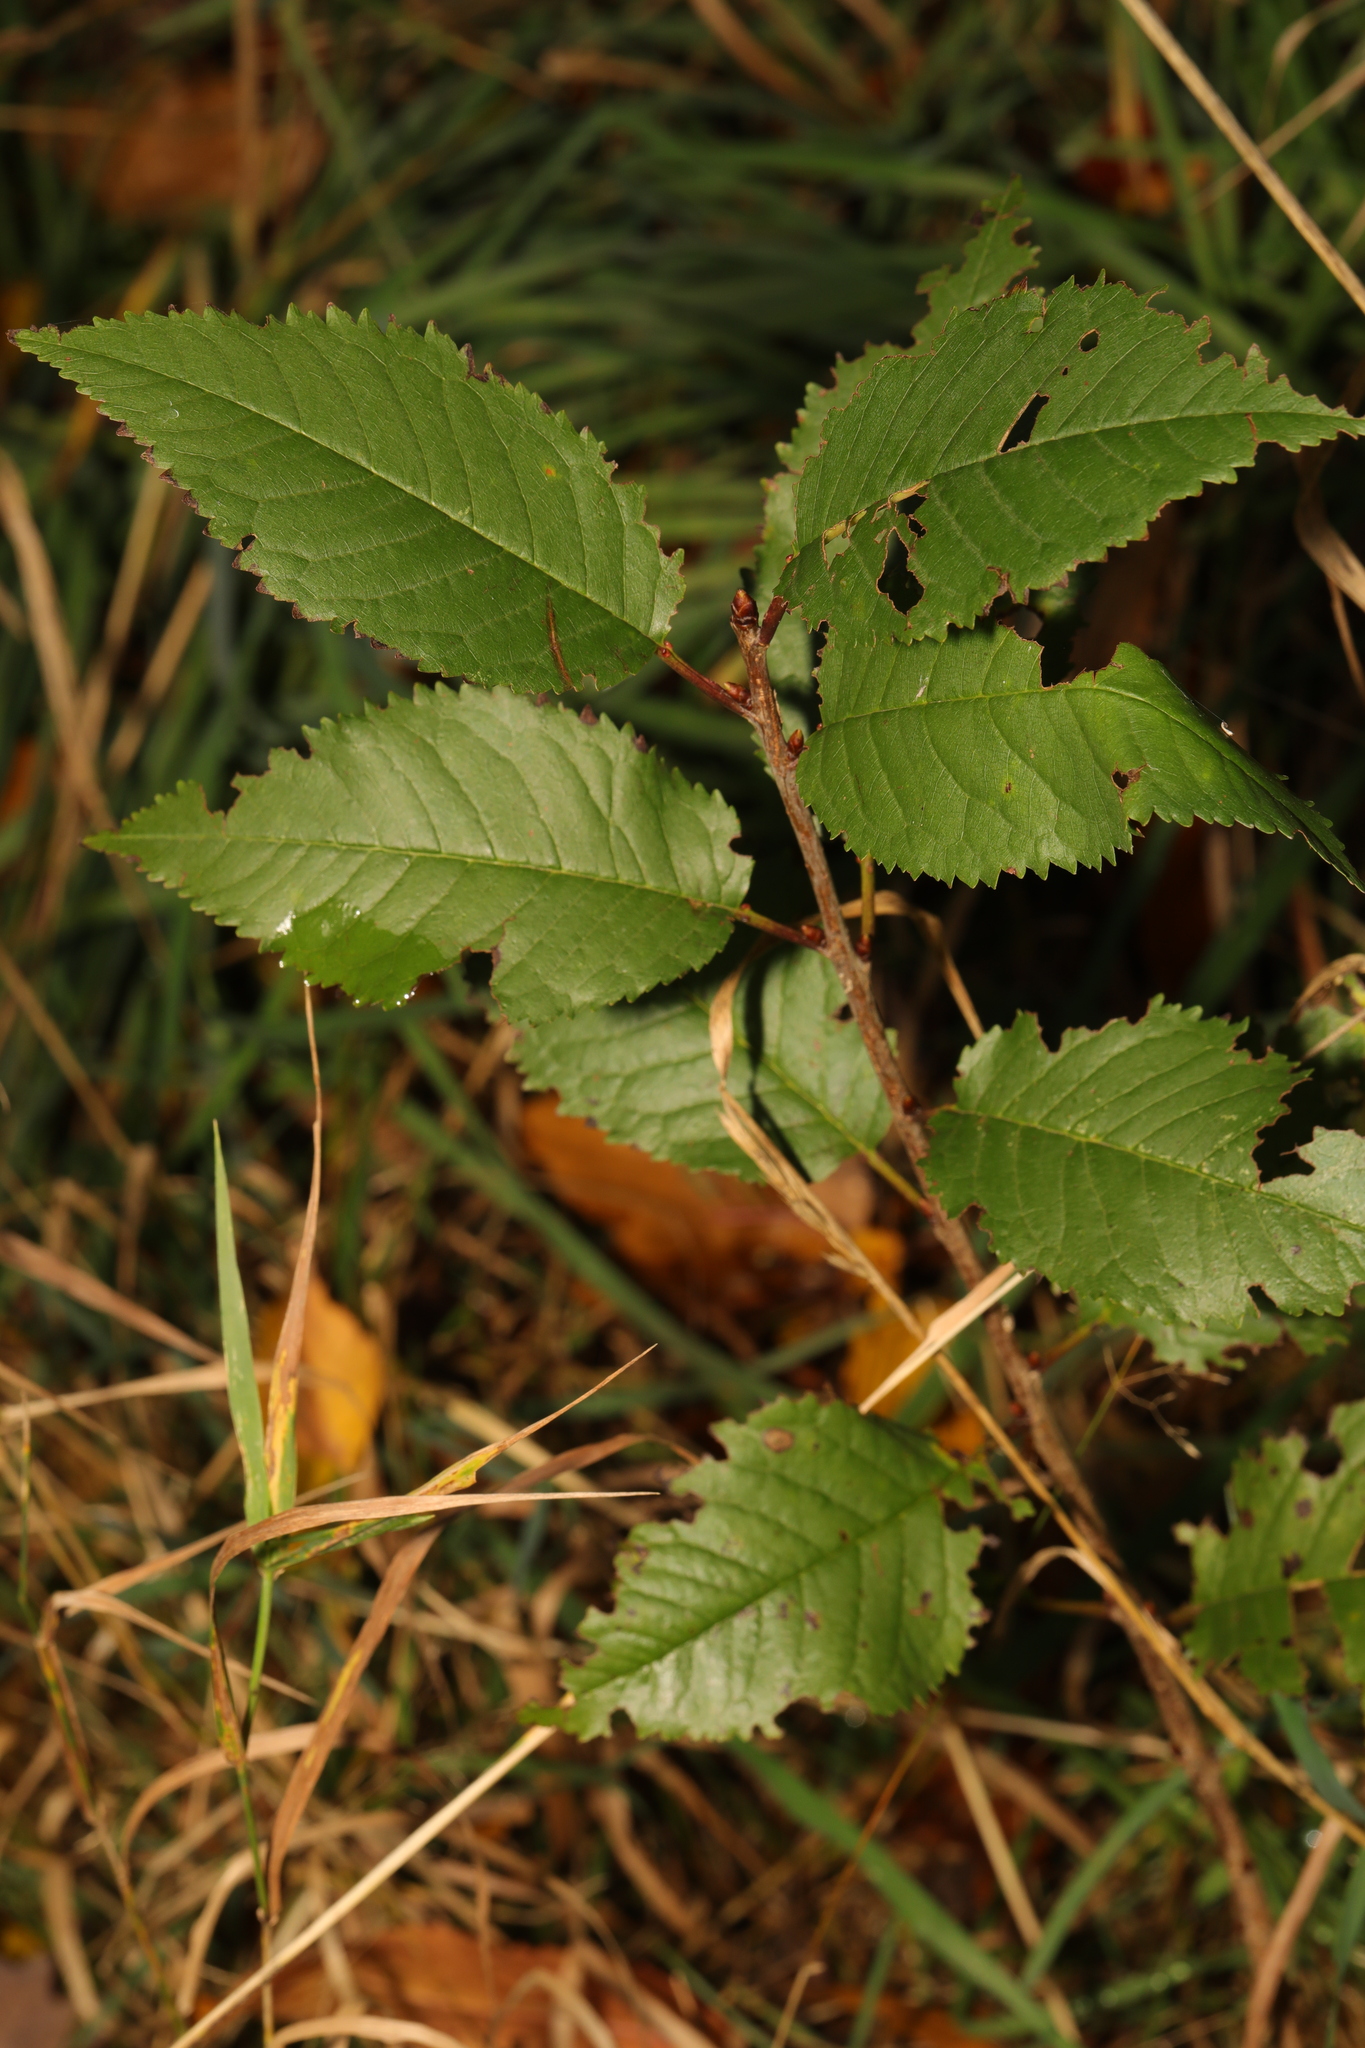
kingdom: Plantae
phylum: Tracheophyta
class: Magnoliopsida
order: Rosales
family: Rosaceae
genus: Prunus
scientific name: Prunus avium
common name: Sweet cherry
